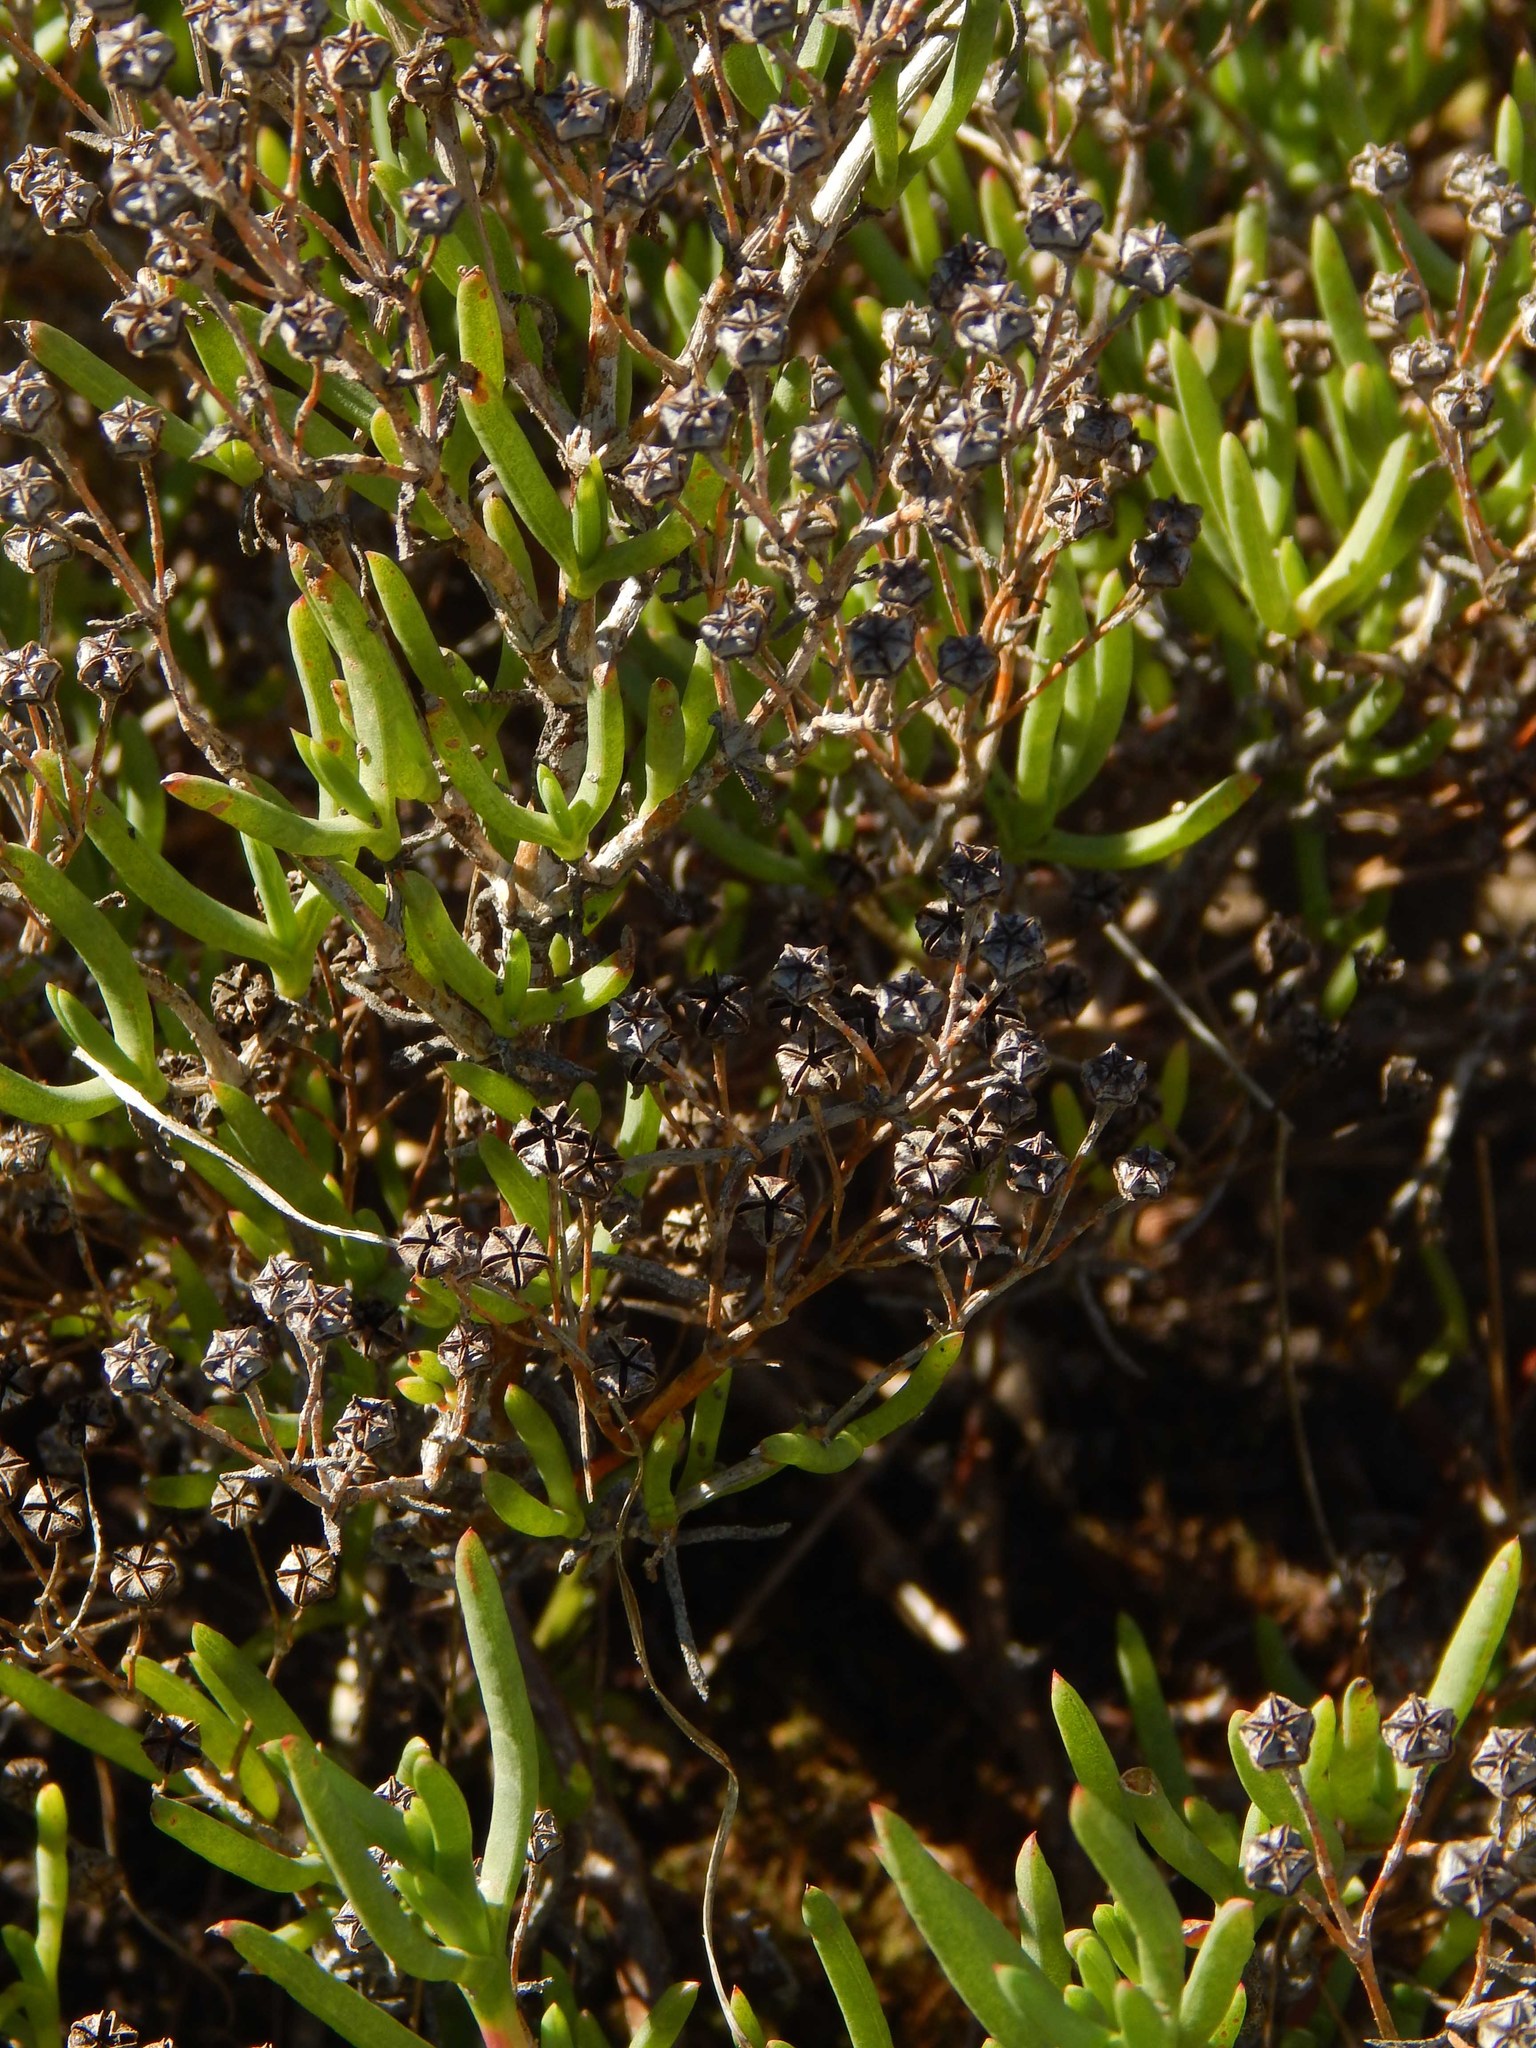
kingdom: Plantae
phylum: Tracheophyta
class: Magnoliopsida
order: Caryophyllales
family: Aizoaceae
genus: Ruschia
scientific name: Ruschia macowanii
